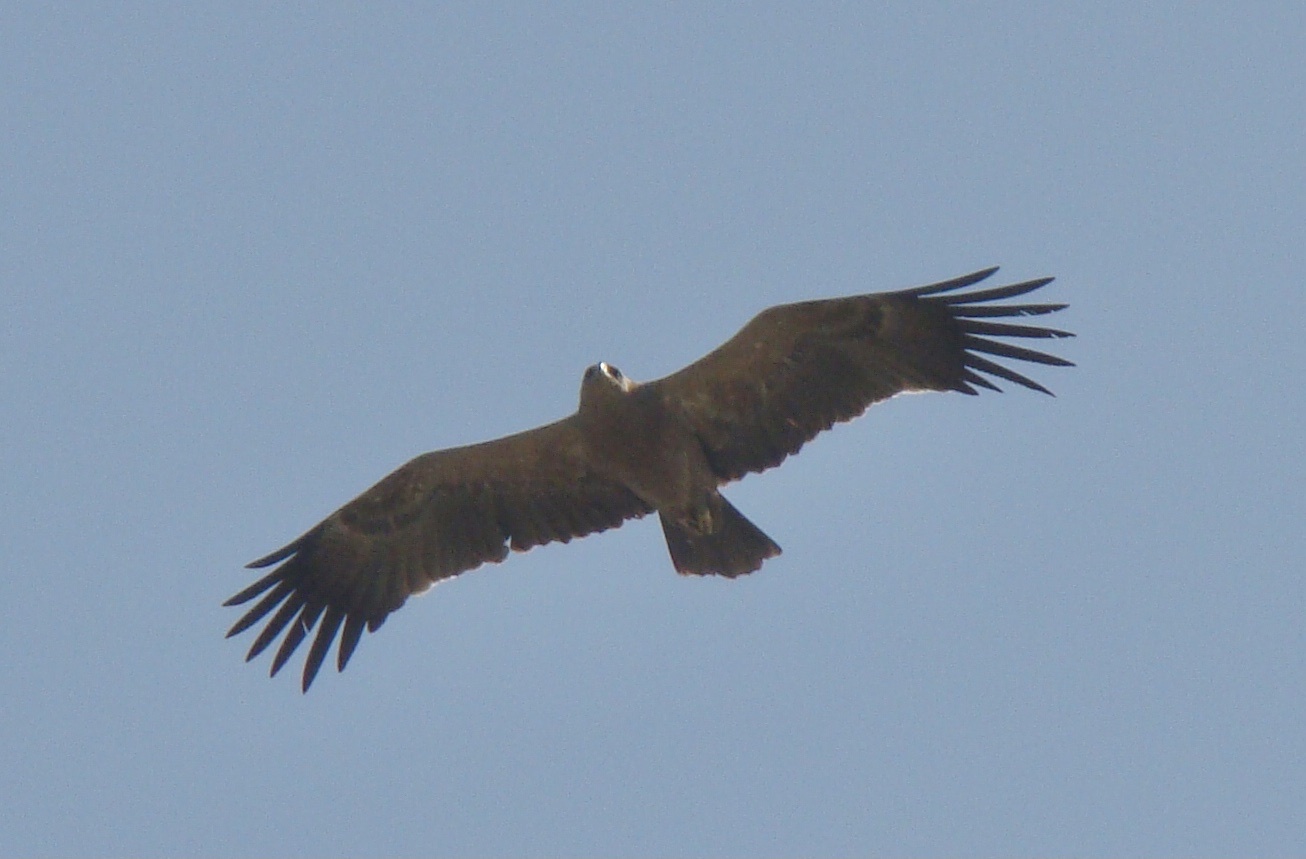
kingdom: Animalia
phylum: Chordata
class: Aves
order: Accipitriformes
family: Accipitridae
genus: Aquila
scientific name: Aquila rapax
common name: Tawny eagle
